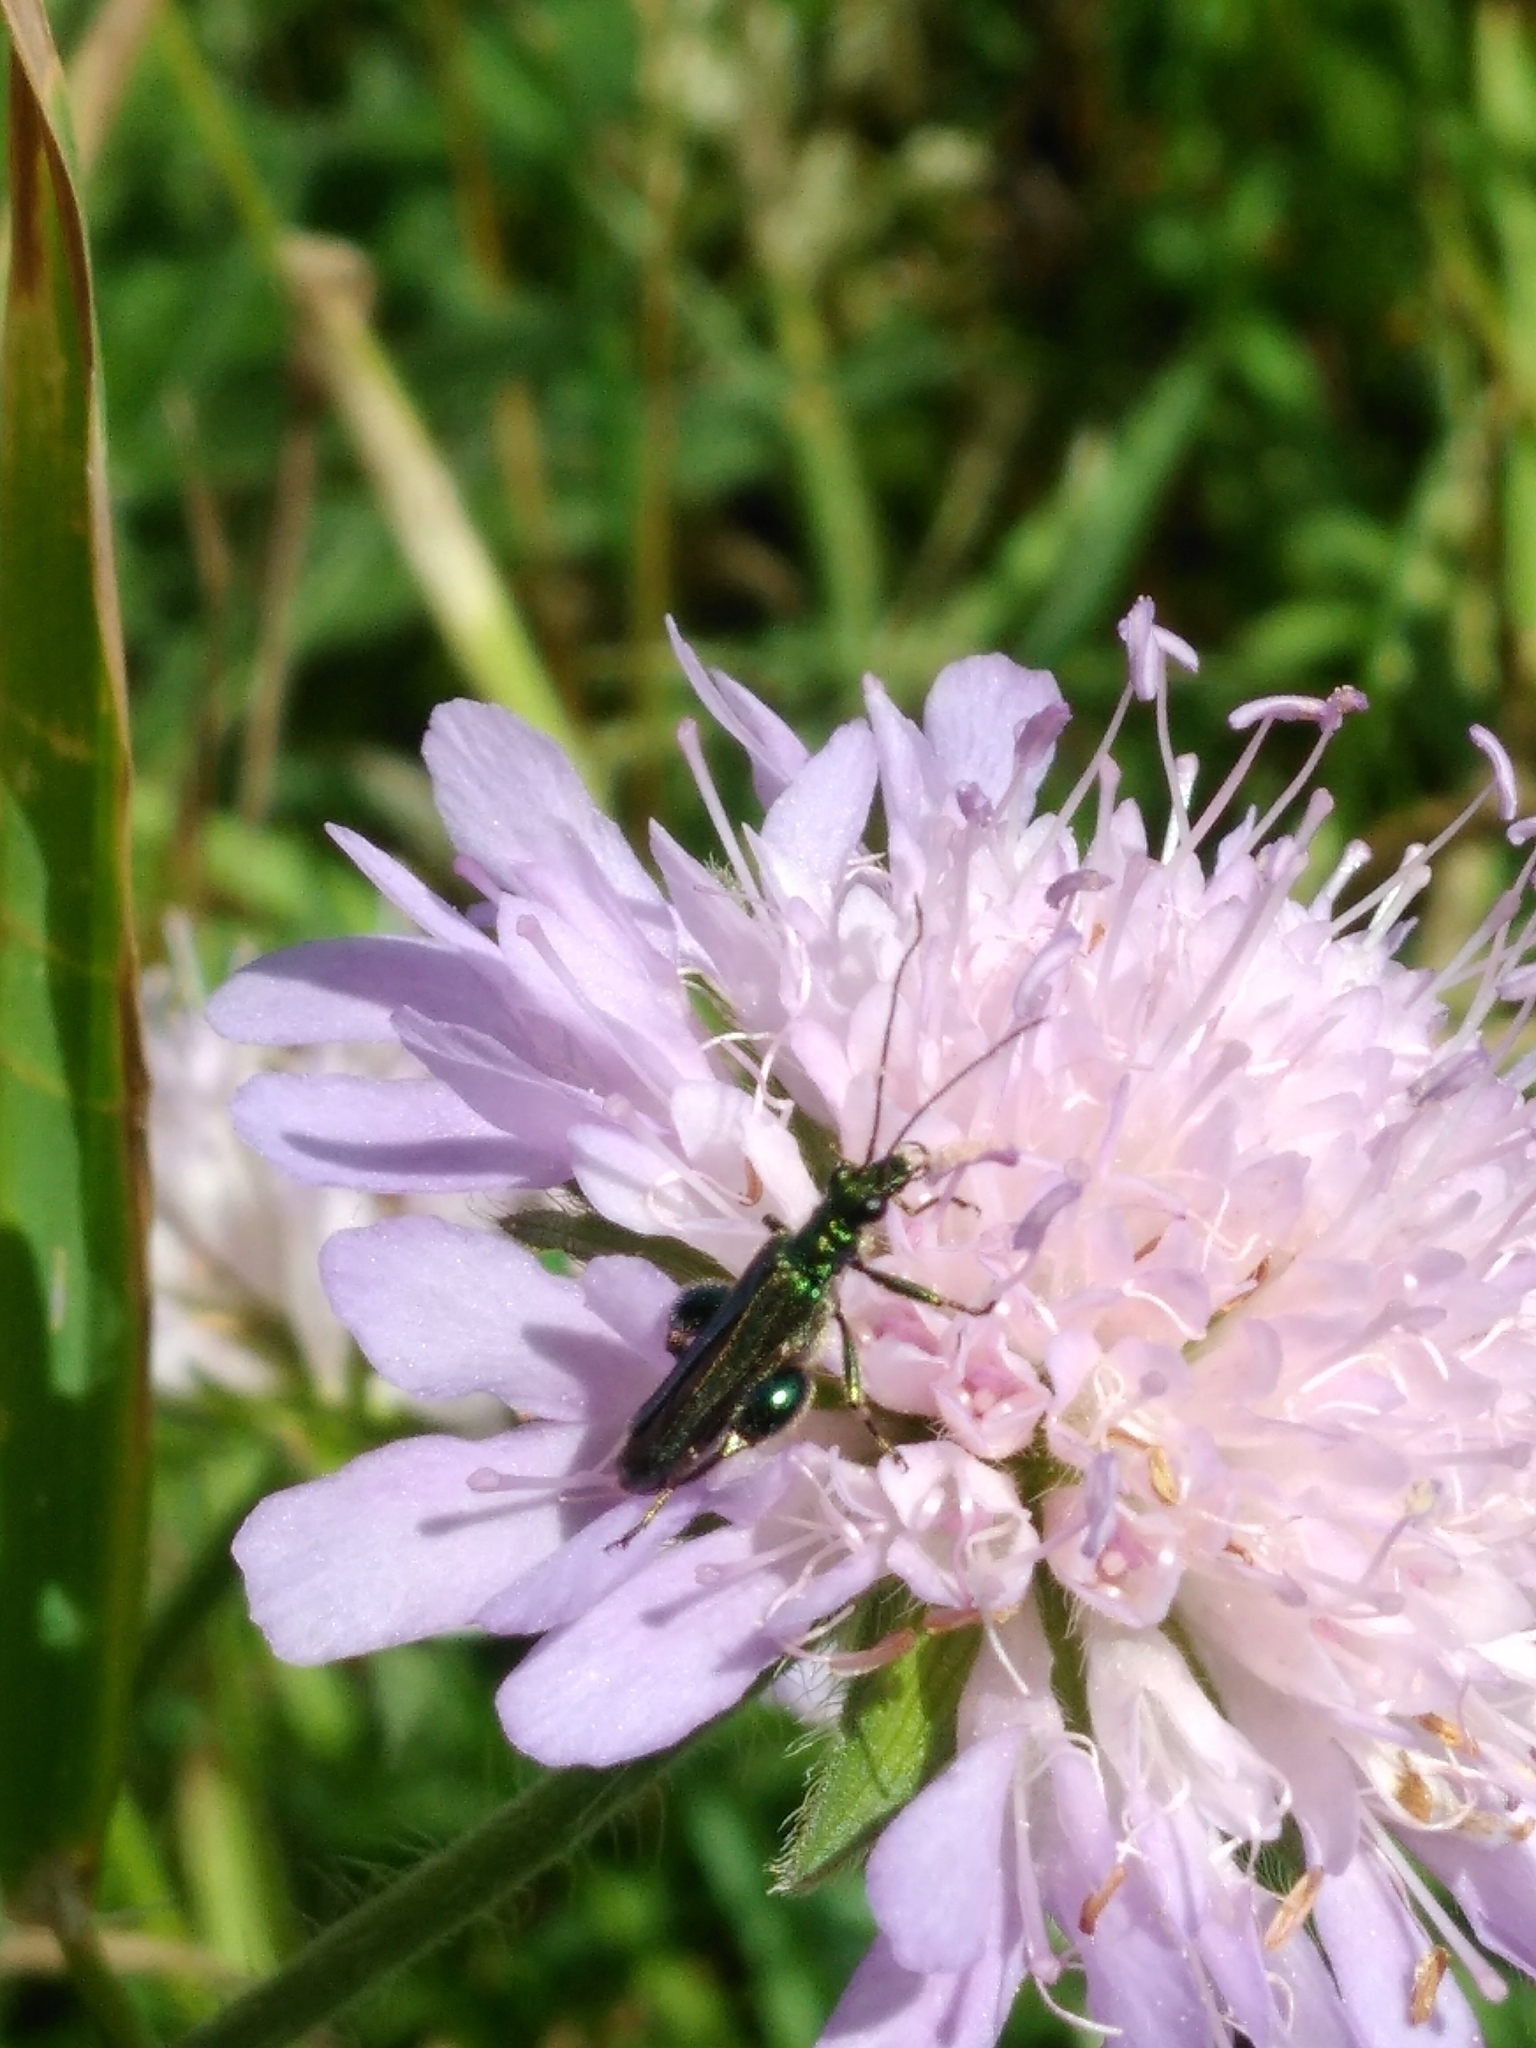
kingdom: Animalia
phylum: Arthropoda
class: Insecta
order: Coleoptera
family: Oedemeridae
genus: Oedemera
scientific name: Oedemera nobilis
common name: Swollen-thighed beetle
